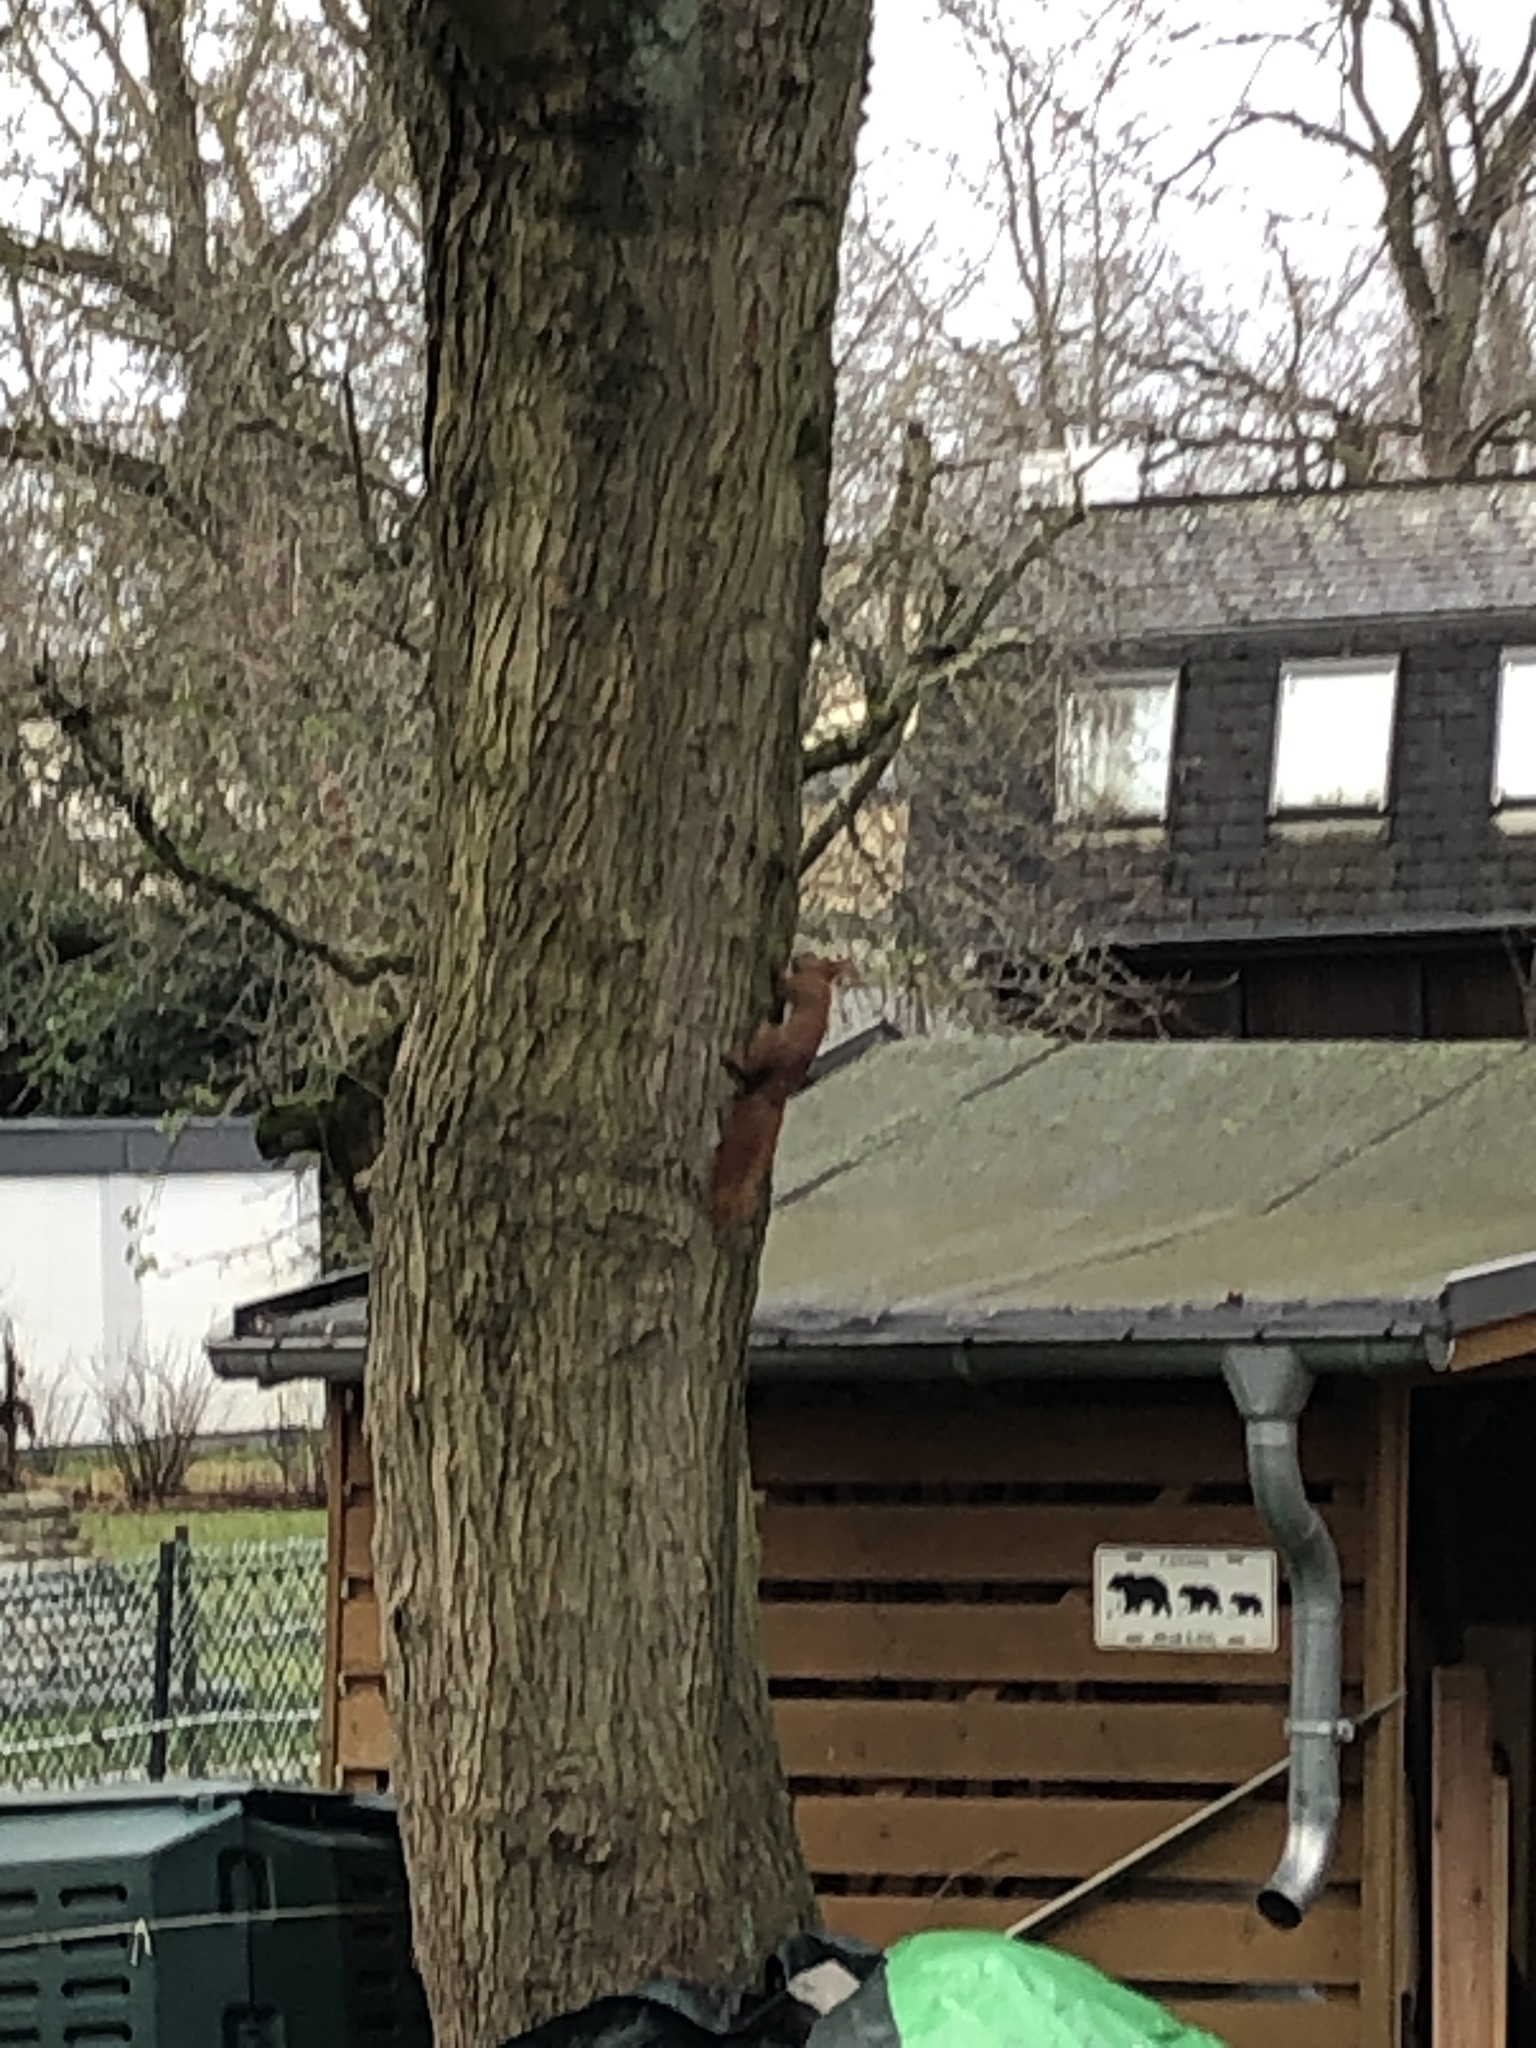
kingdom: Animalia
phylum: Chordata
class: Mammalia
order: Rodentia
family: Sciuridae
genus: Sciurus
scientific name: Sciurus vulgaris
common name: Eurasian red squirrel
